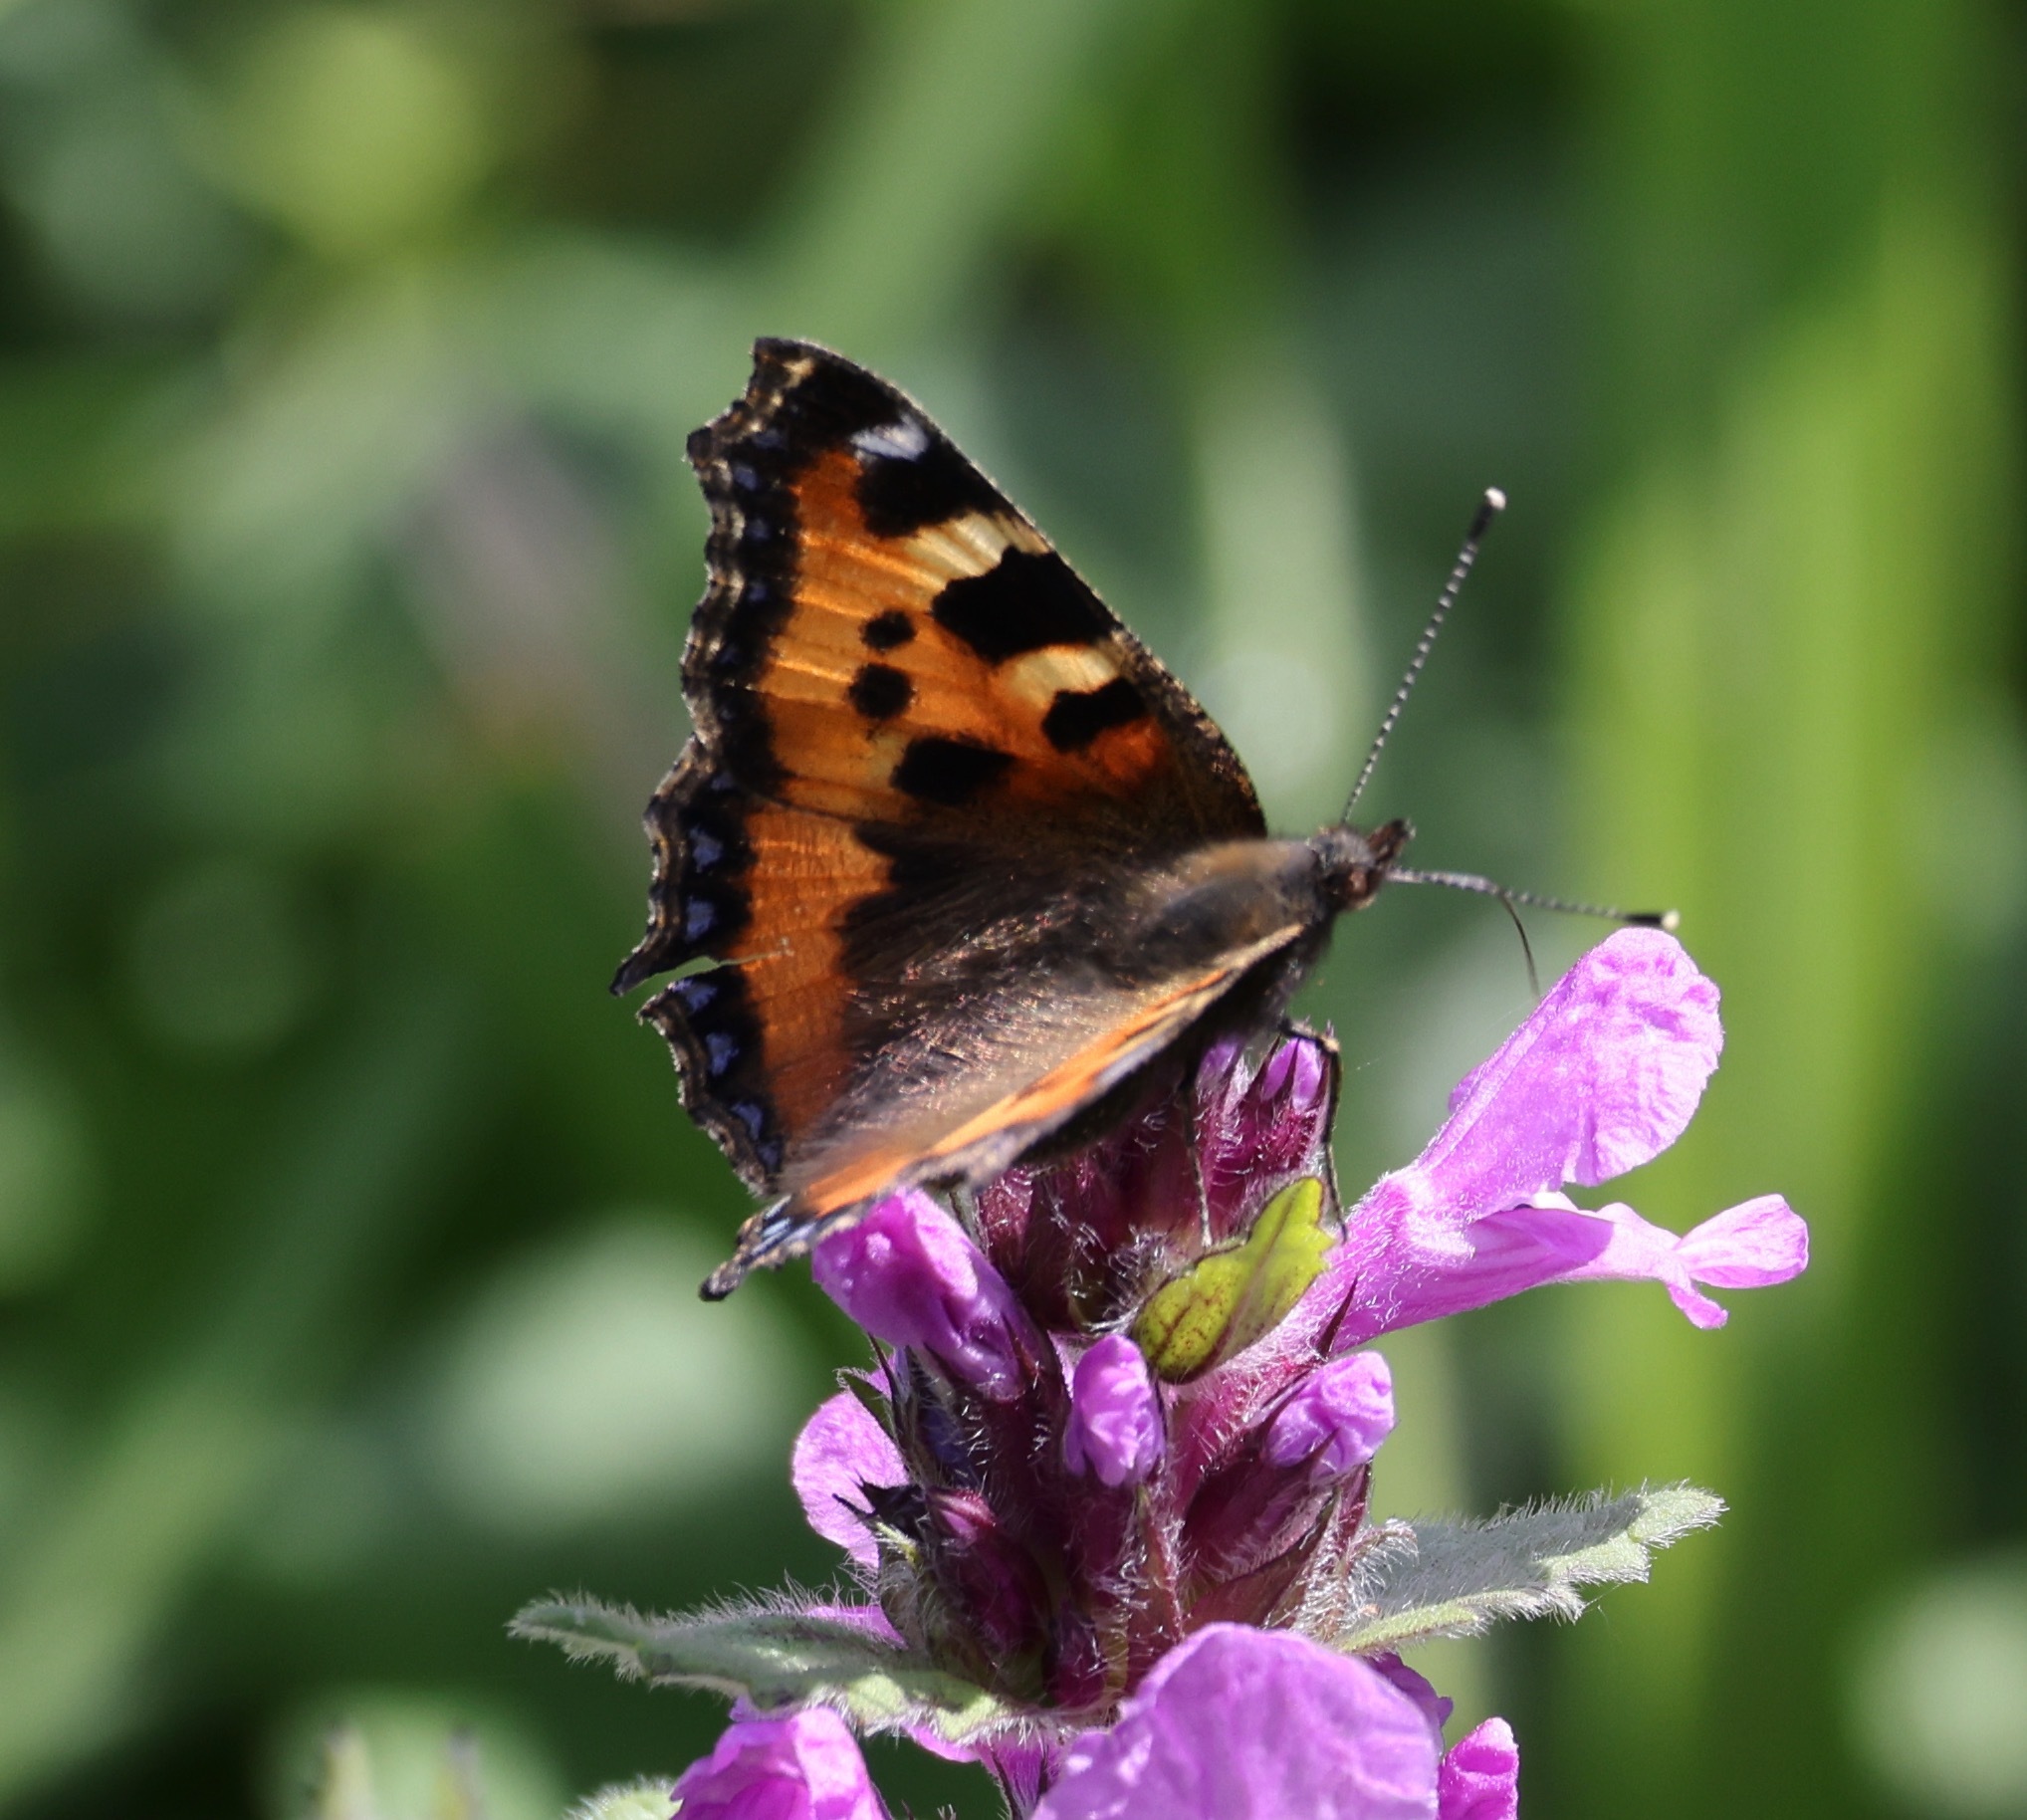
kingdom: Animalia
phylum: Arthropoda
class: Insecta
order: Lepidoptera
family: Nymphalidae
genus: Aglais
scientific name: Aglais urticae
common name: Small tortoiseshell
